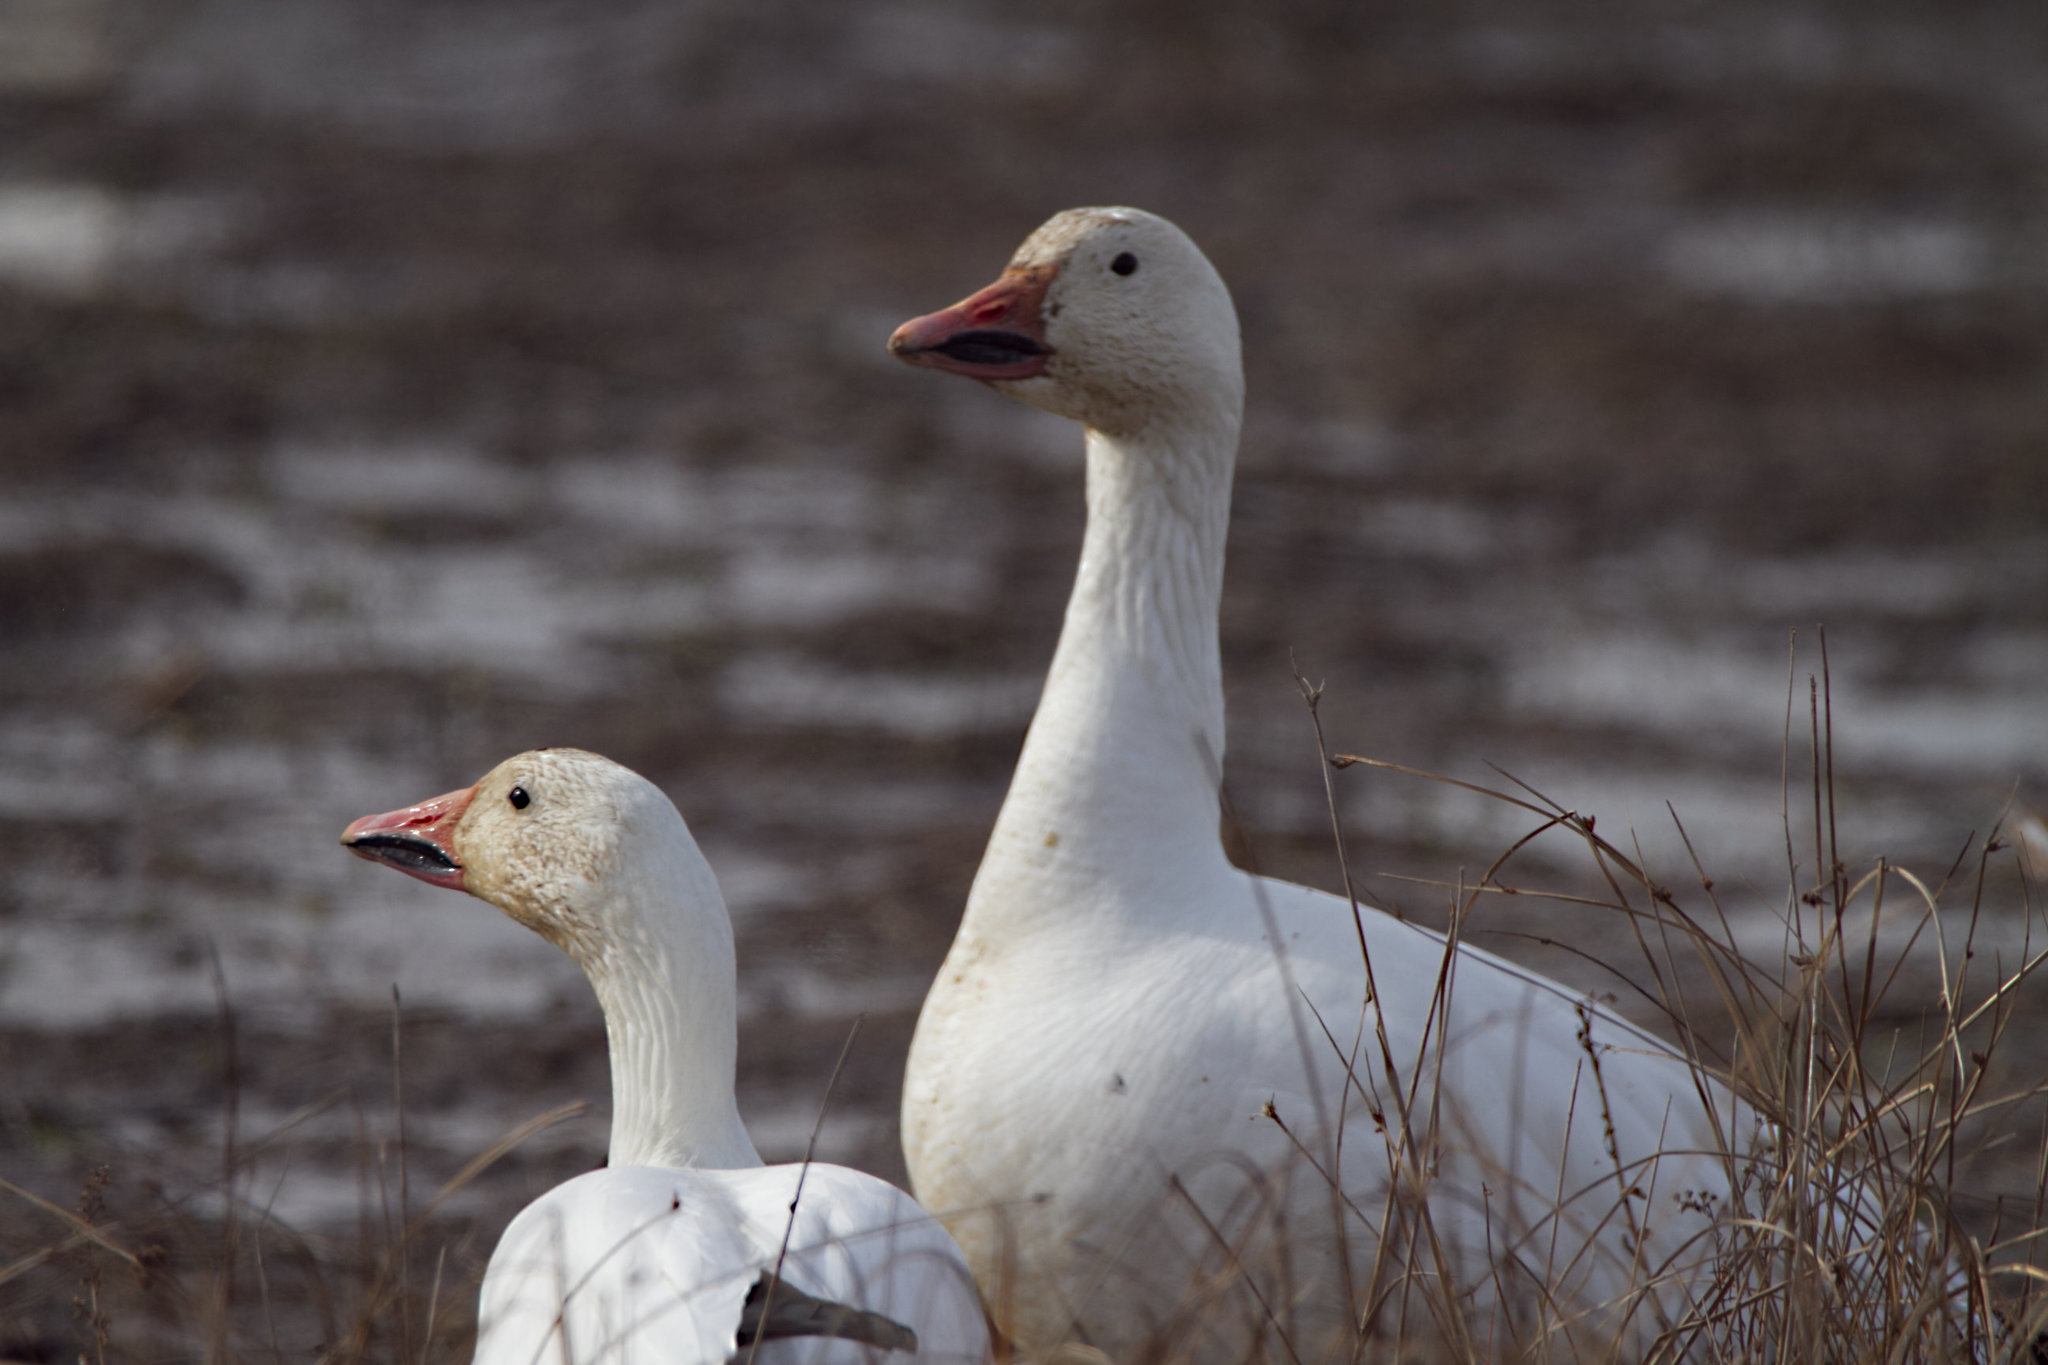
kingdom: Animalia
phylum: Chordata
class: Aves
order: Anseriformes
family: Anatidae
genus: Anser
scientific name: Anser caerulescens
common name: Snow goose
